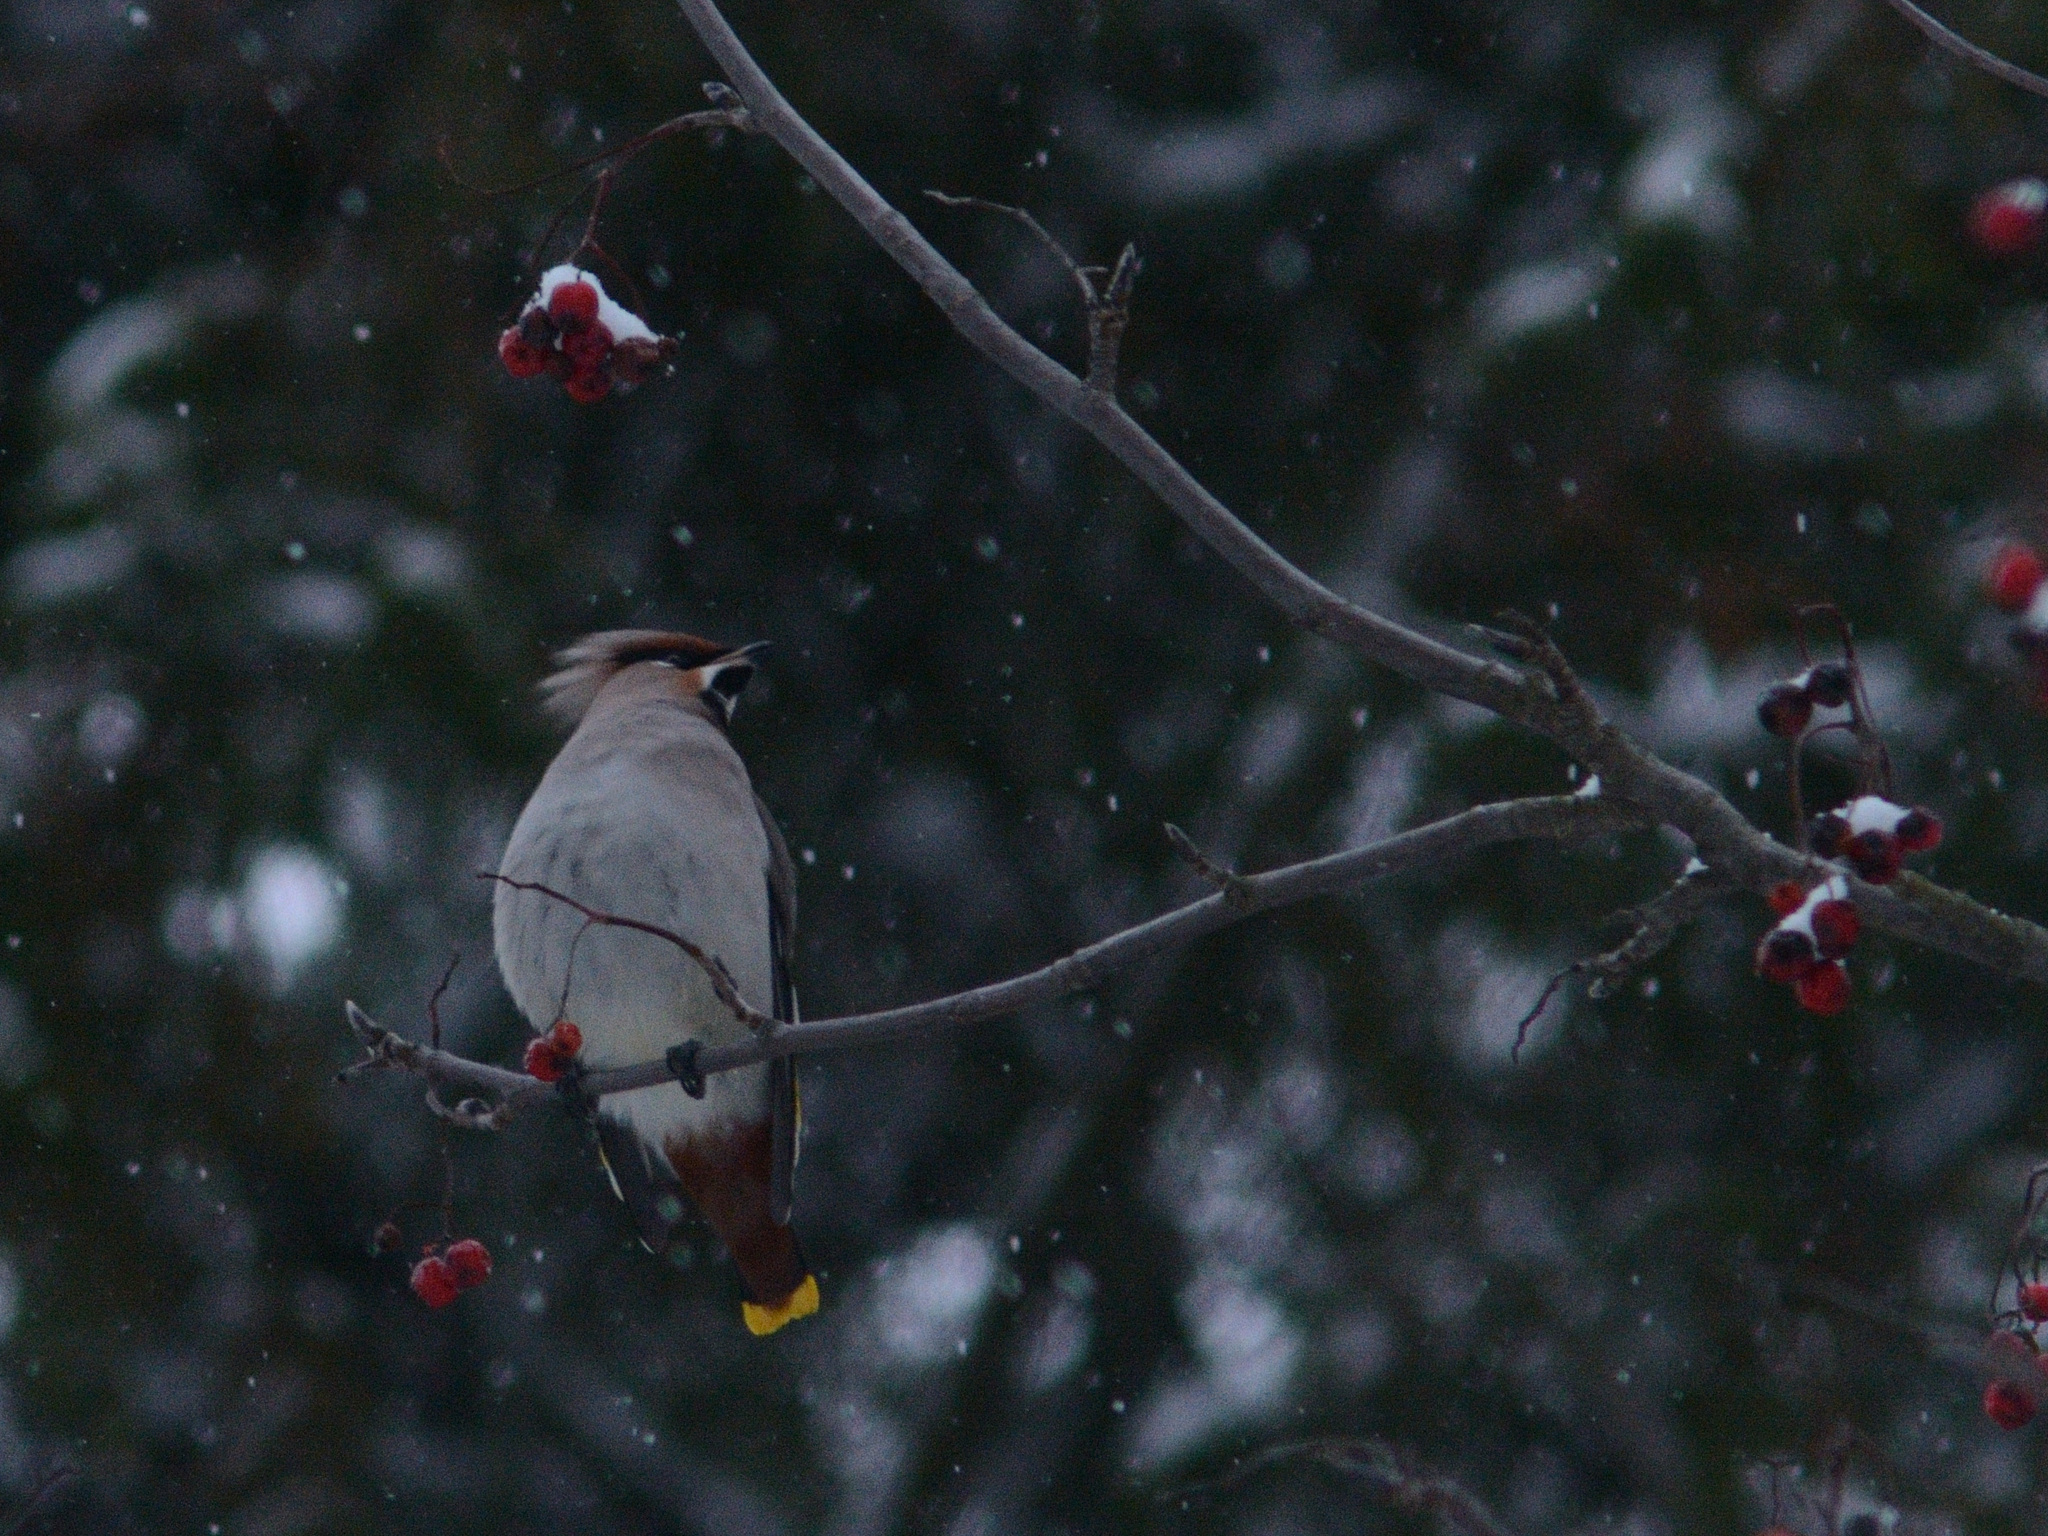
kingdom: Animalia
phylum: Chordata
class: Aves
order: Passeriformes
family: Bombycillidae
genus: Bombycilla
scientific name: Bombycilla garrulus
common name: Bohemian waxwing
